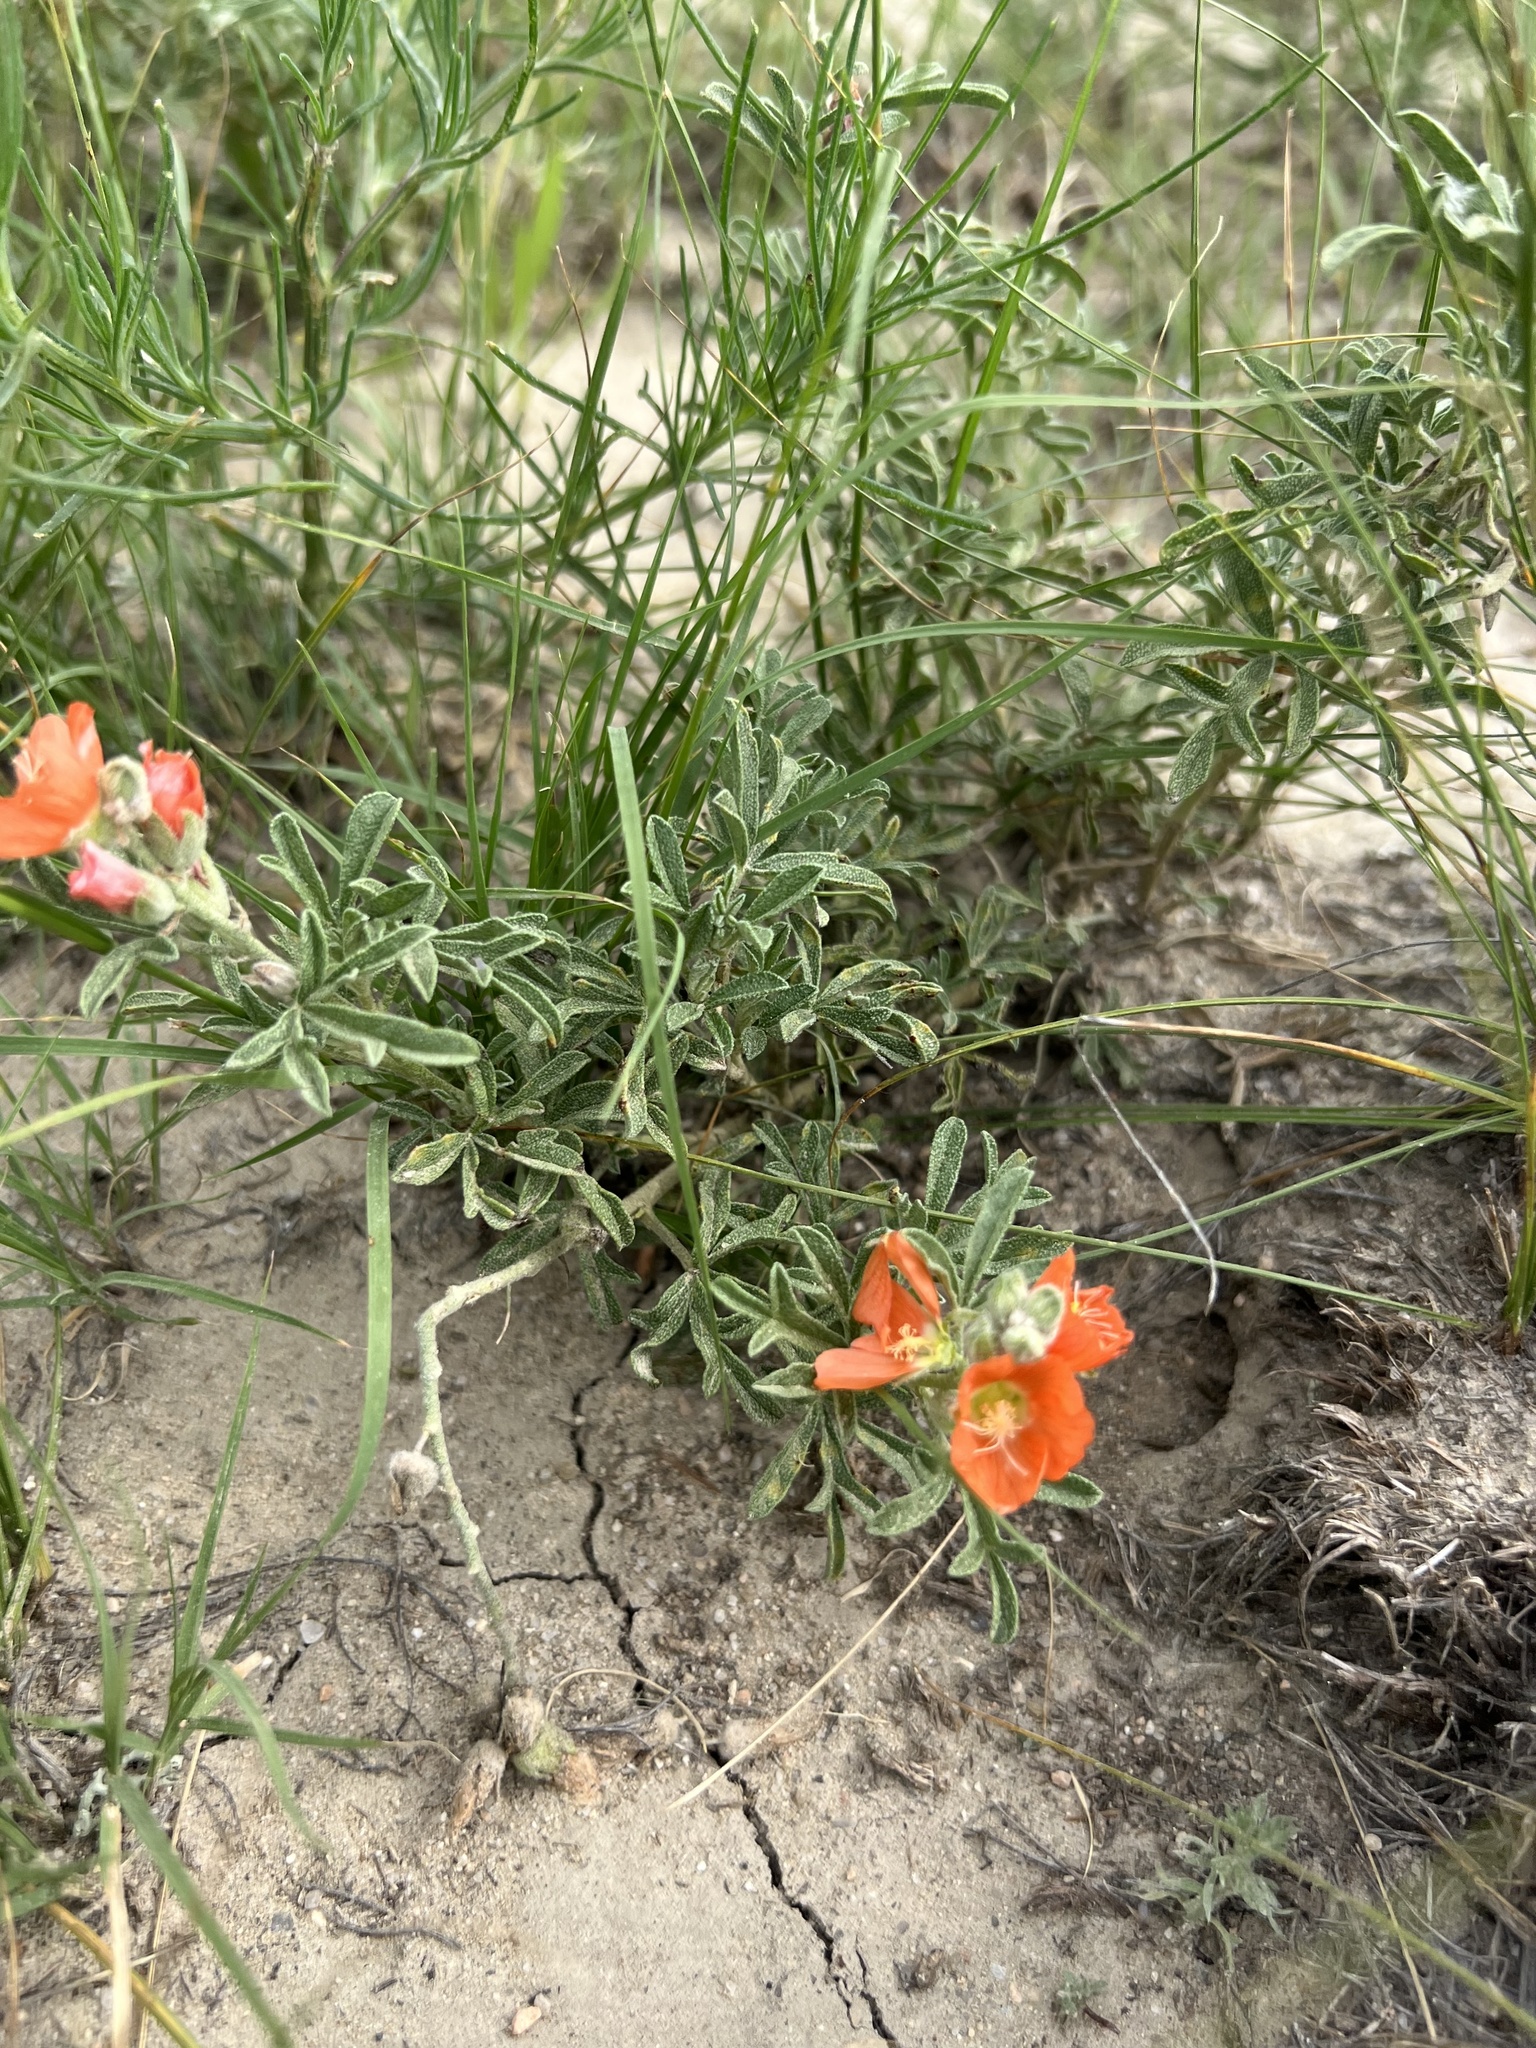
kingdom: Plantae
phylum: Tracheophyta
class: Magnoliopsida
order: Malvales
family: Malvaceae
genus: Sphaeralcea
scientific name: Sphaeralcea coccinea
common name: Moss-rose
